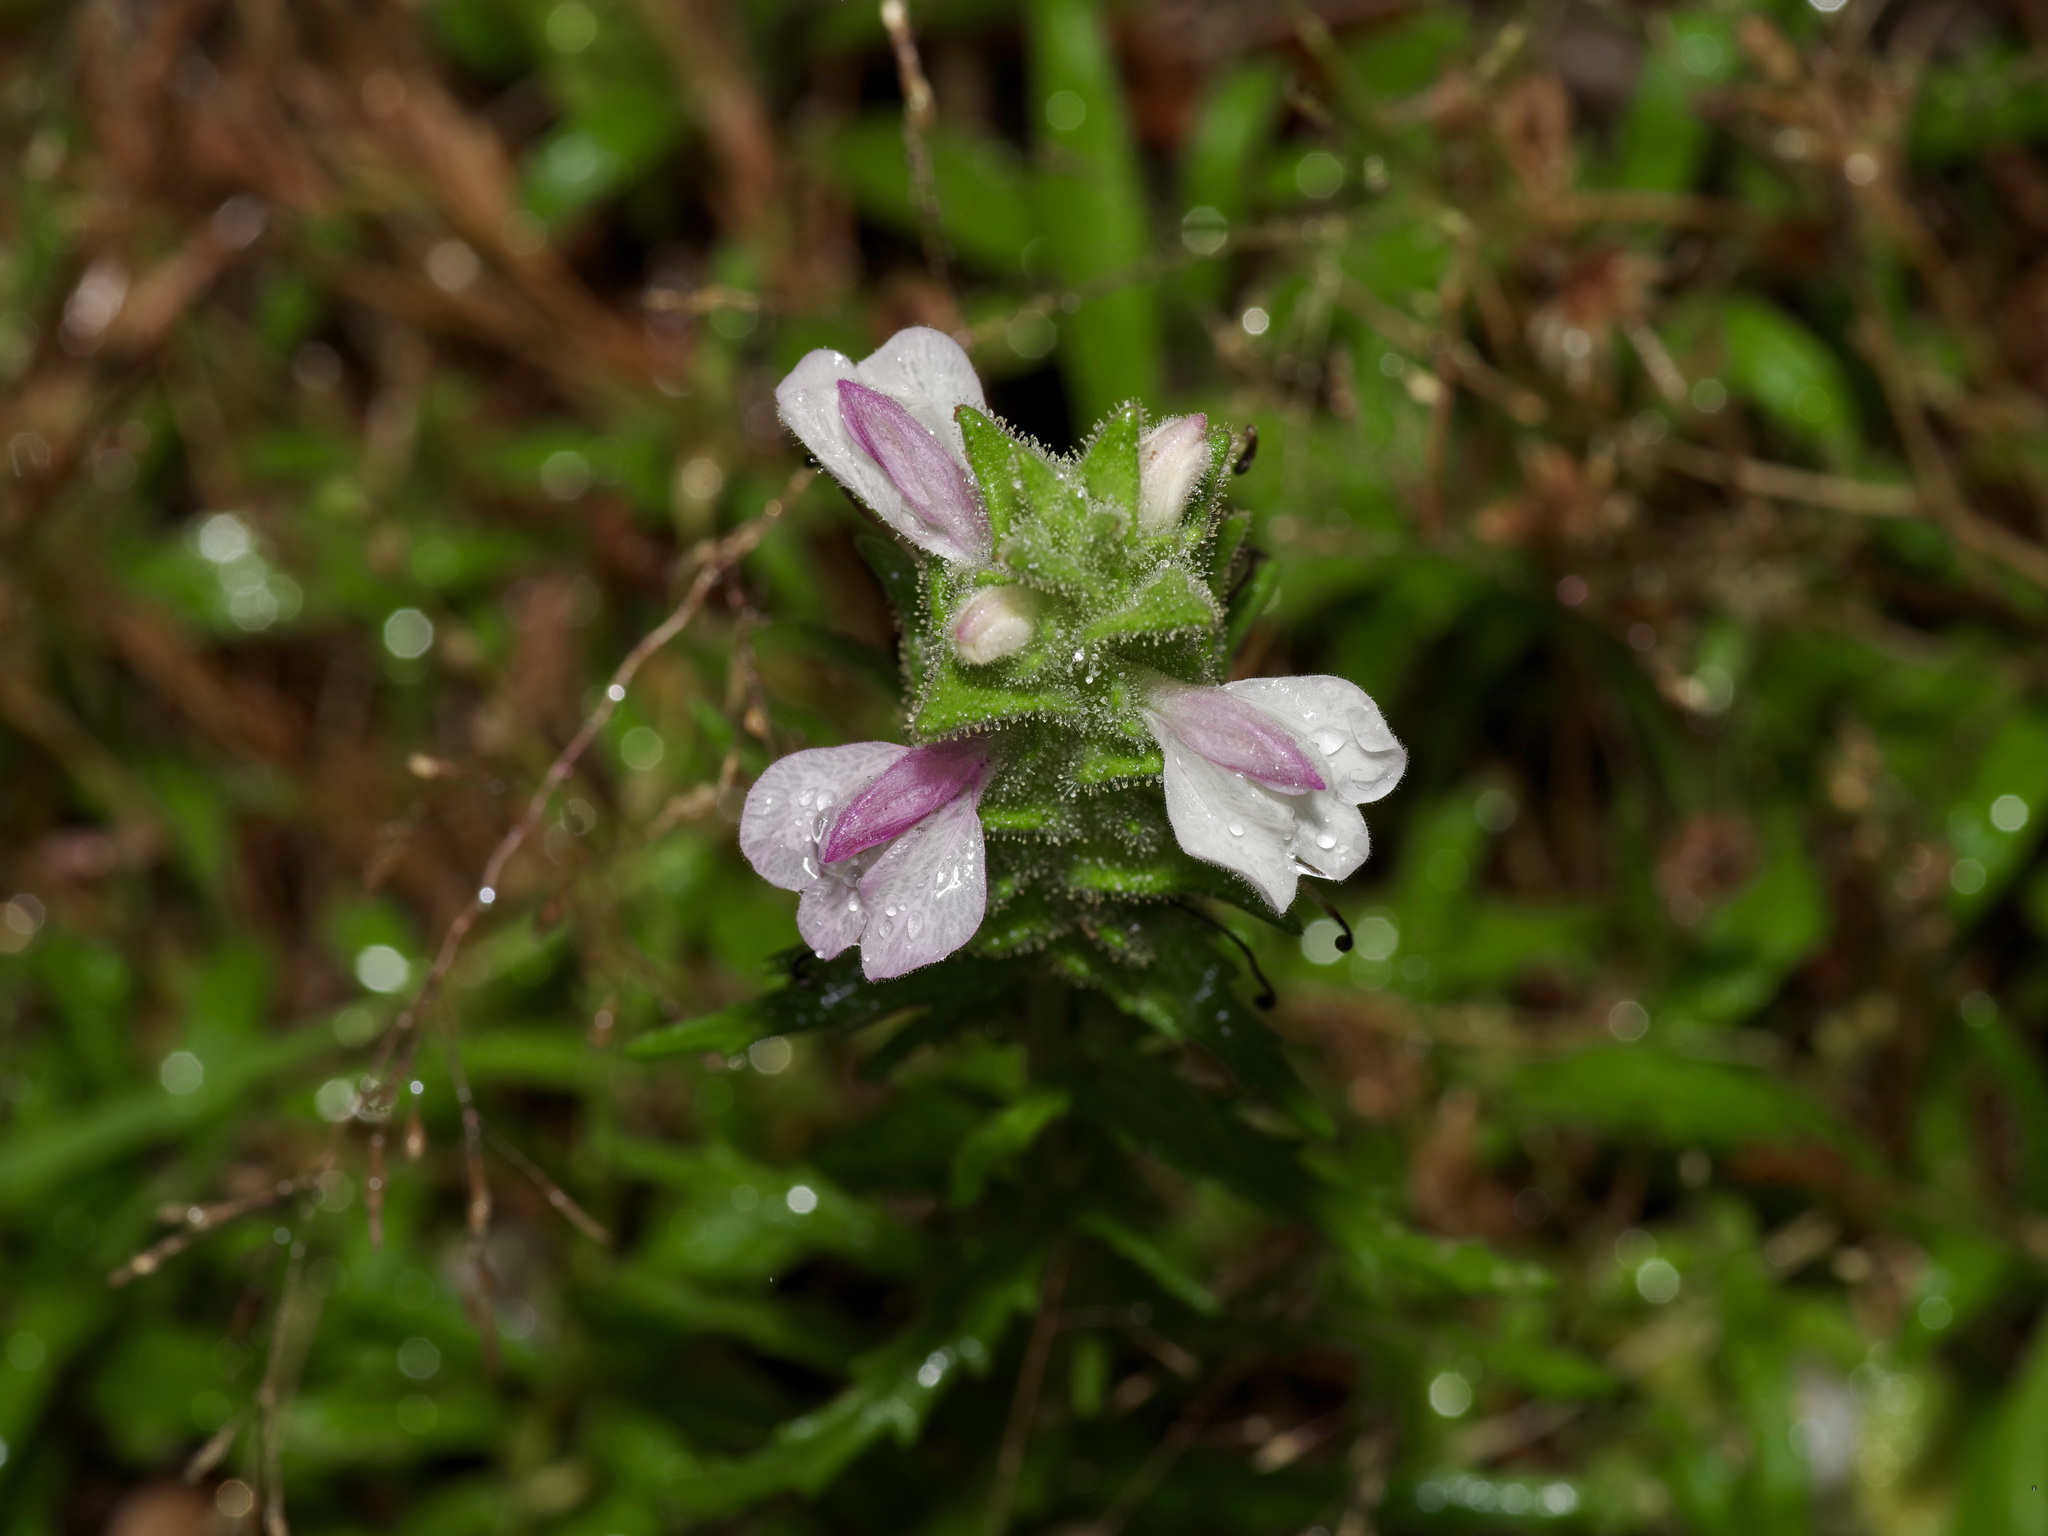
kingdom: Plantae
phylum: Tracheophyta
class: Magnoliopsida
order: Lamiales
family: Orobanchaceae
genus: Bellardia
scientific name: Bellardia trixago
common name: Mediterranean lineseed
